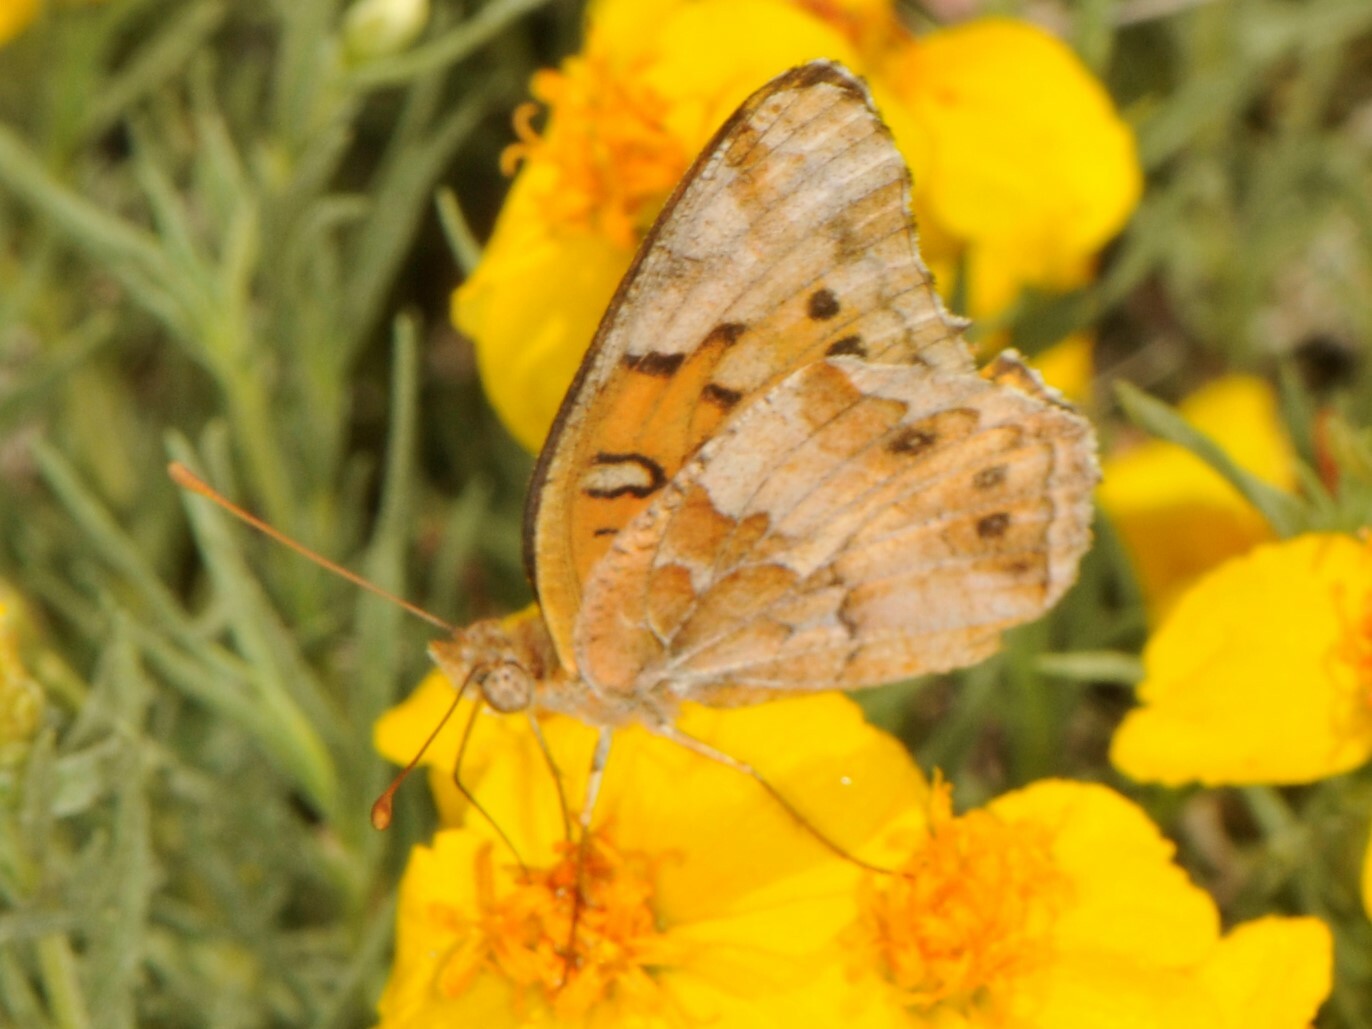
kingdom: Animalia
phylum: Arthropoda
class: Insecta
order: Lepidoptera
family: Nymphalidae
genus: Euptoieta
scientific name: Euptoieta claudia
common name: Variegated fritillary
